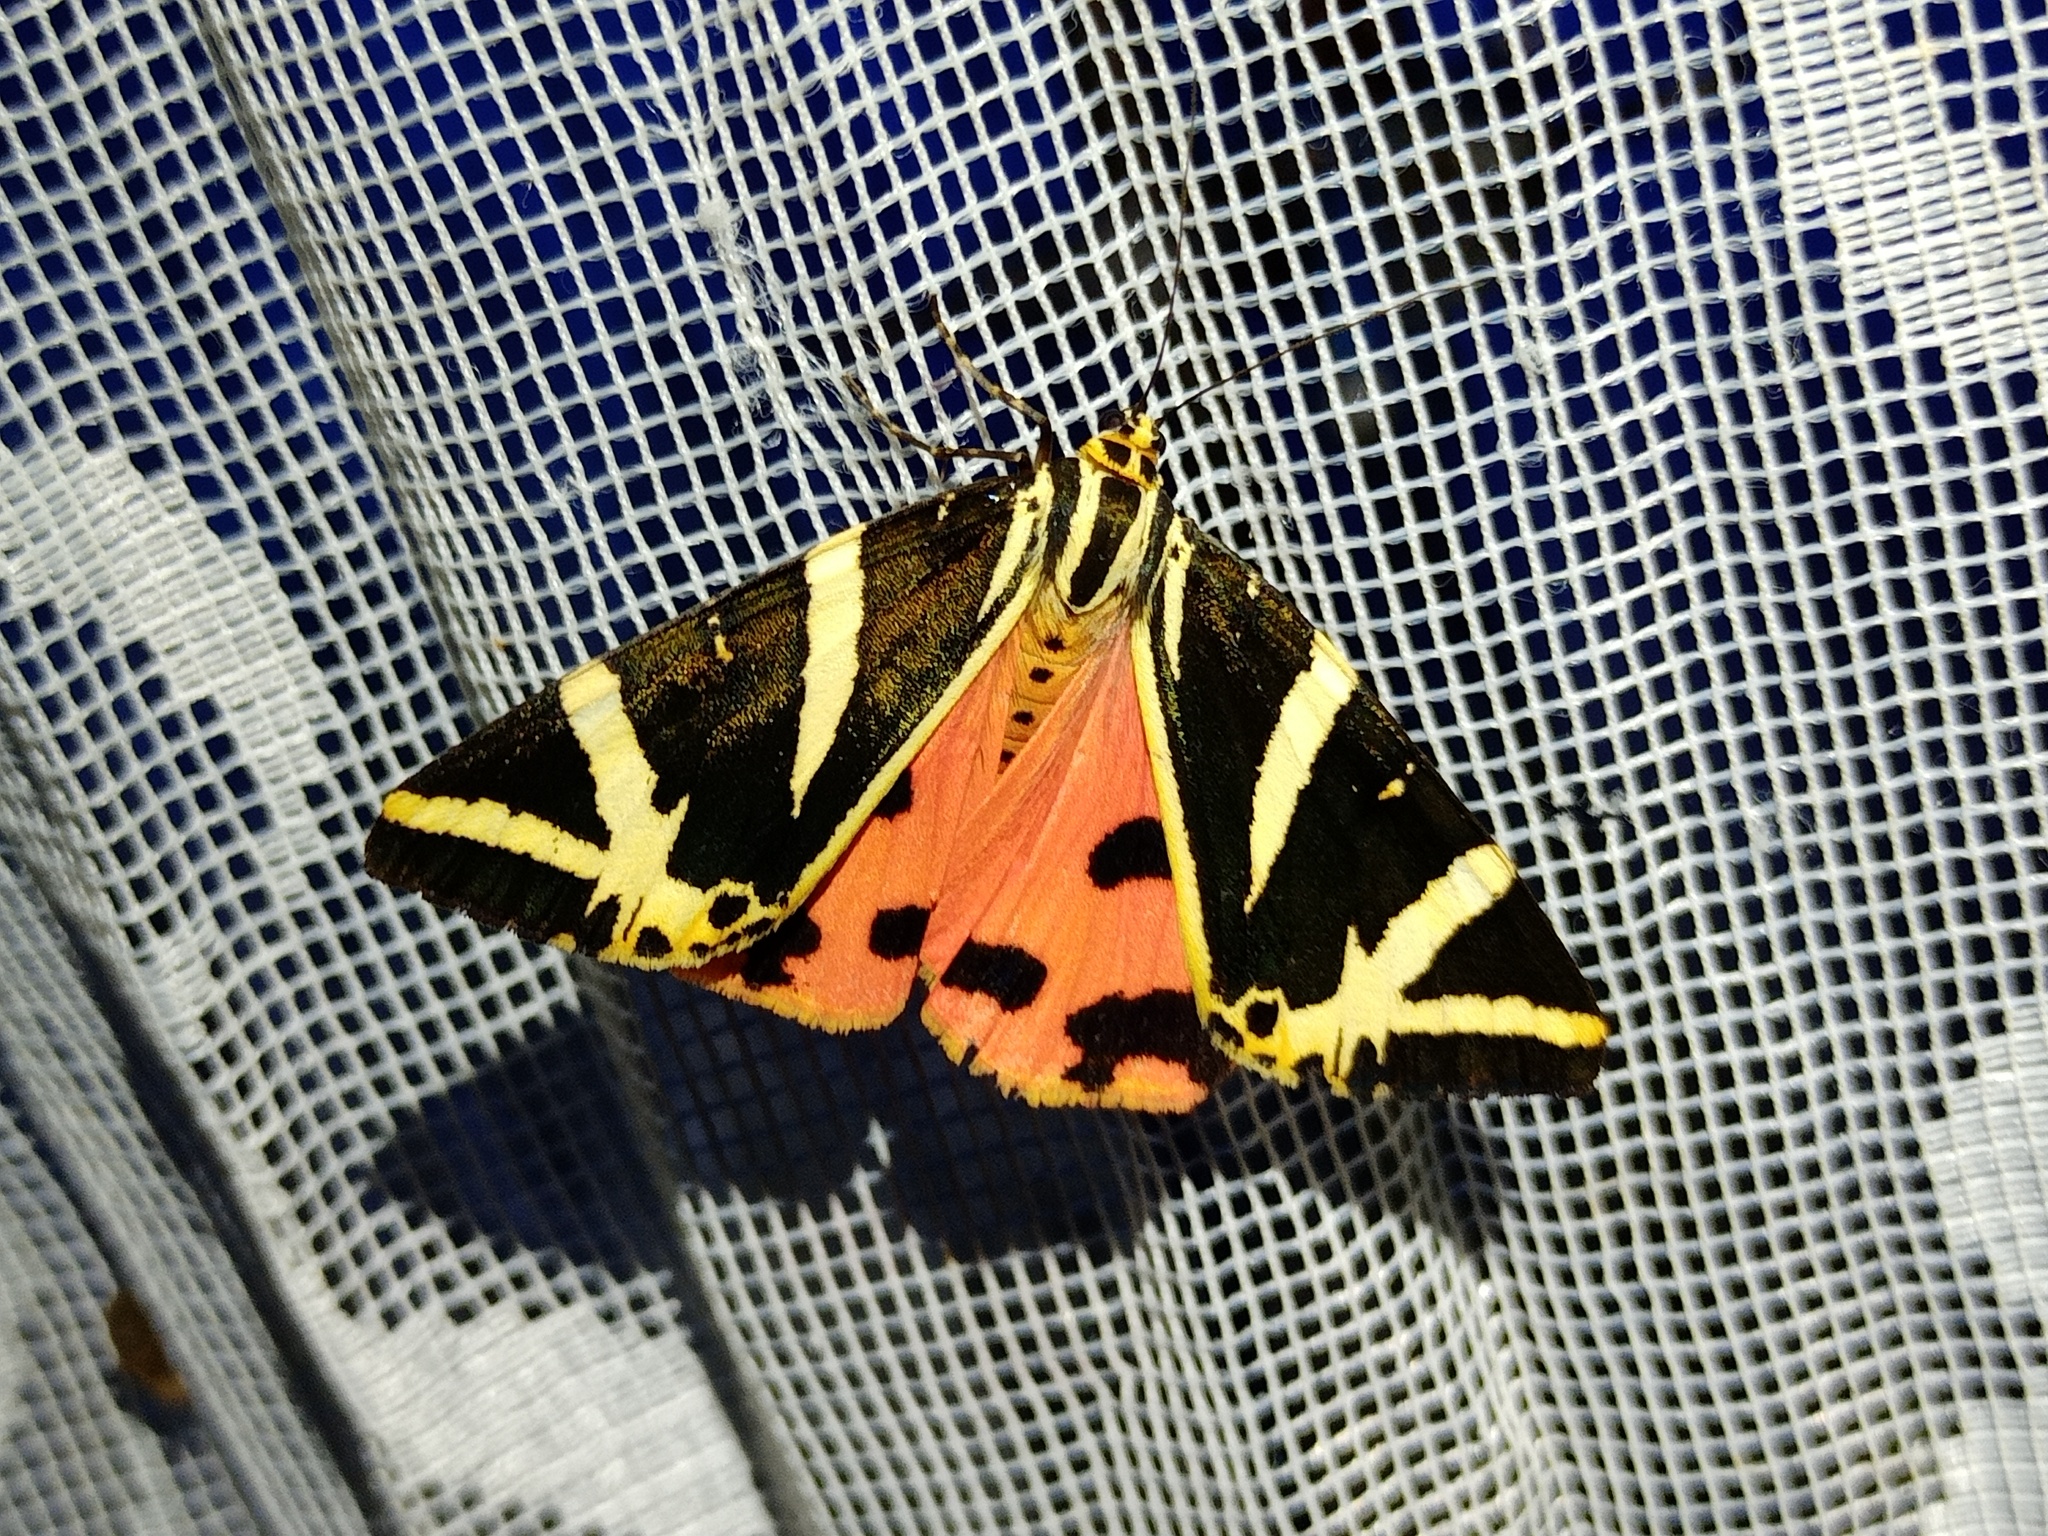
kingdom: Animalia
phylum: Arthropoda
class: Insecta
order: Lepidoptera
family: Erebidae
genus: Euplagia
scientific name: Euplagia quadripunctaria
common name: Jersey tiger
